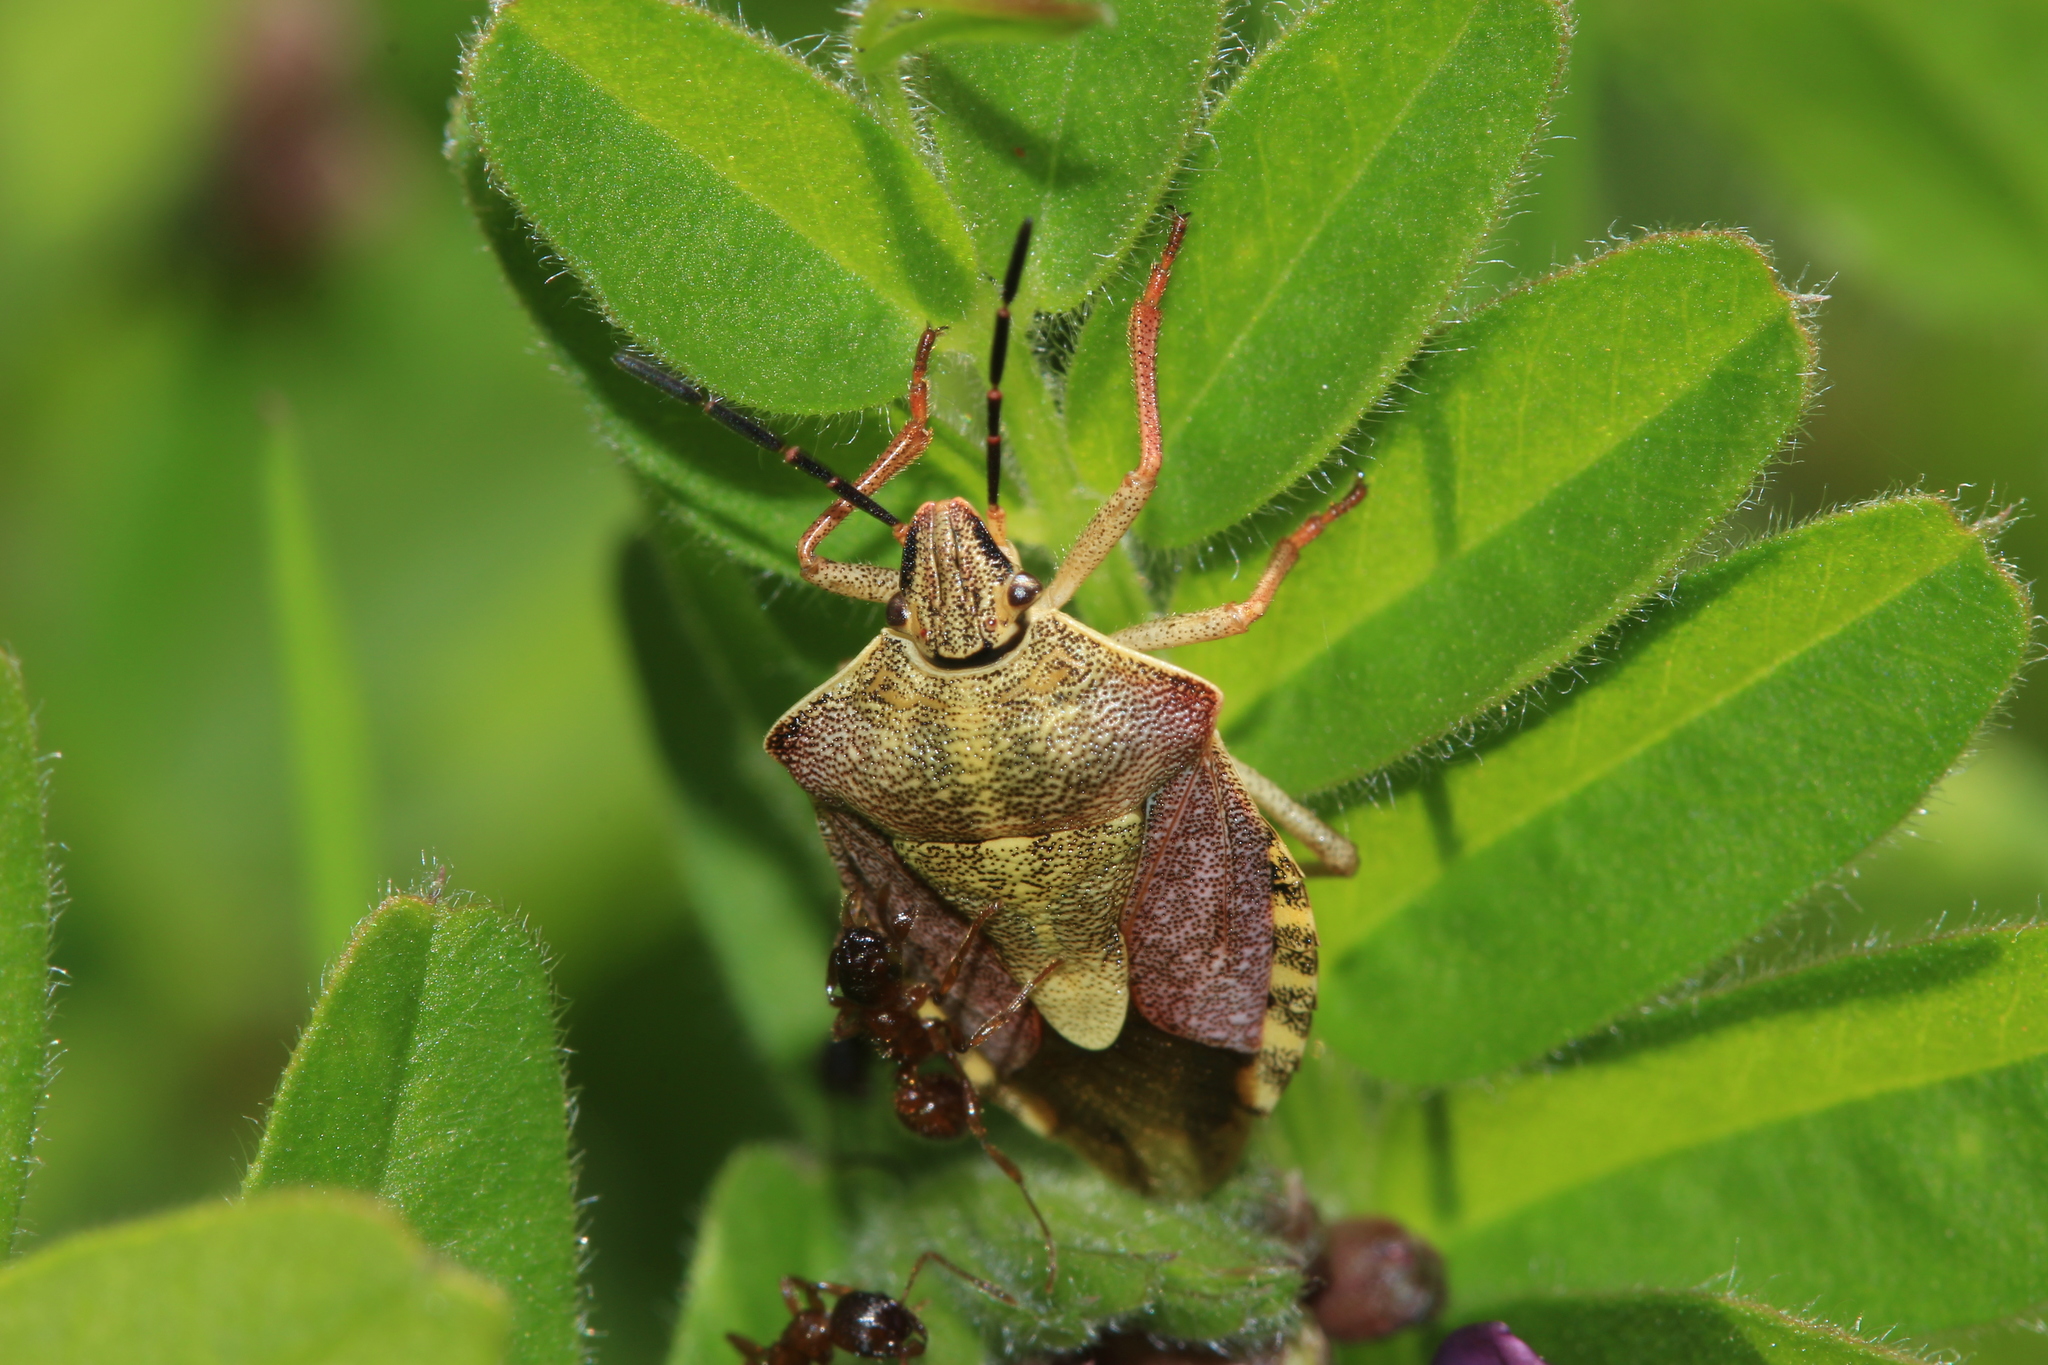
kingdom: Animalia
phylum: Arthropoda
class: Insecta
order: Hemiptera
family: Pentatomidae
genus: Carpocoris
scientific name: Carpocoris purpureipennis
